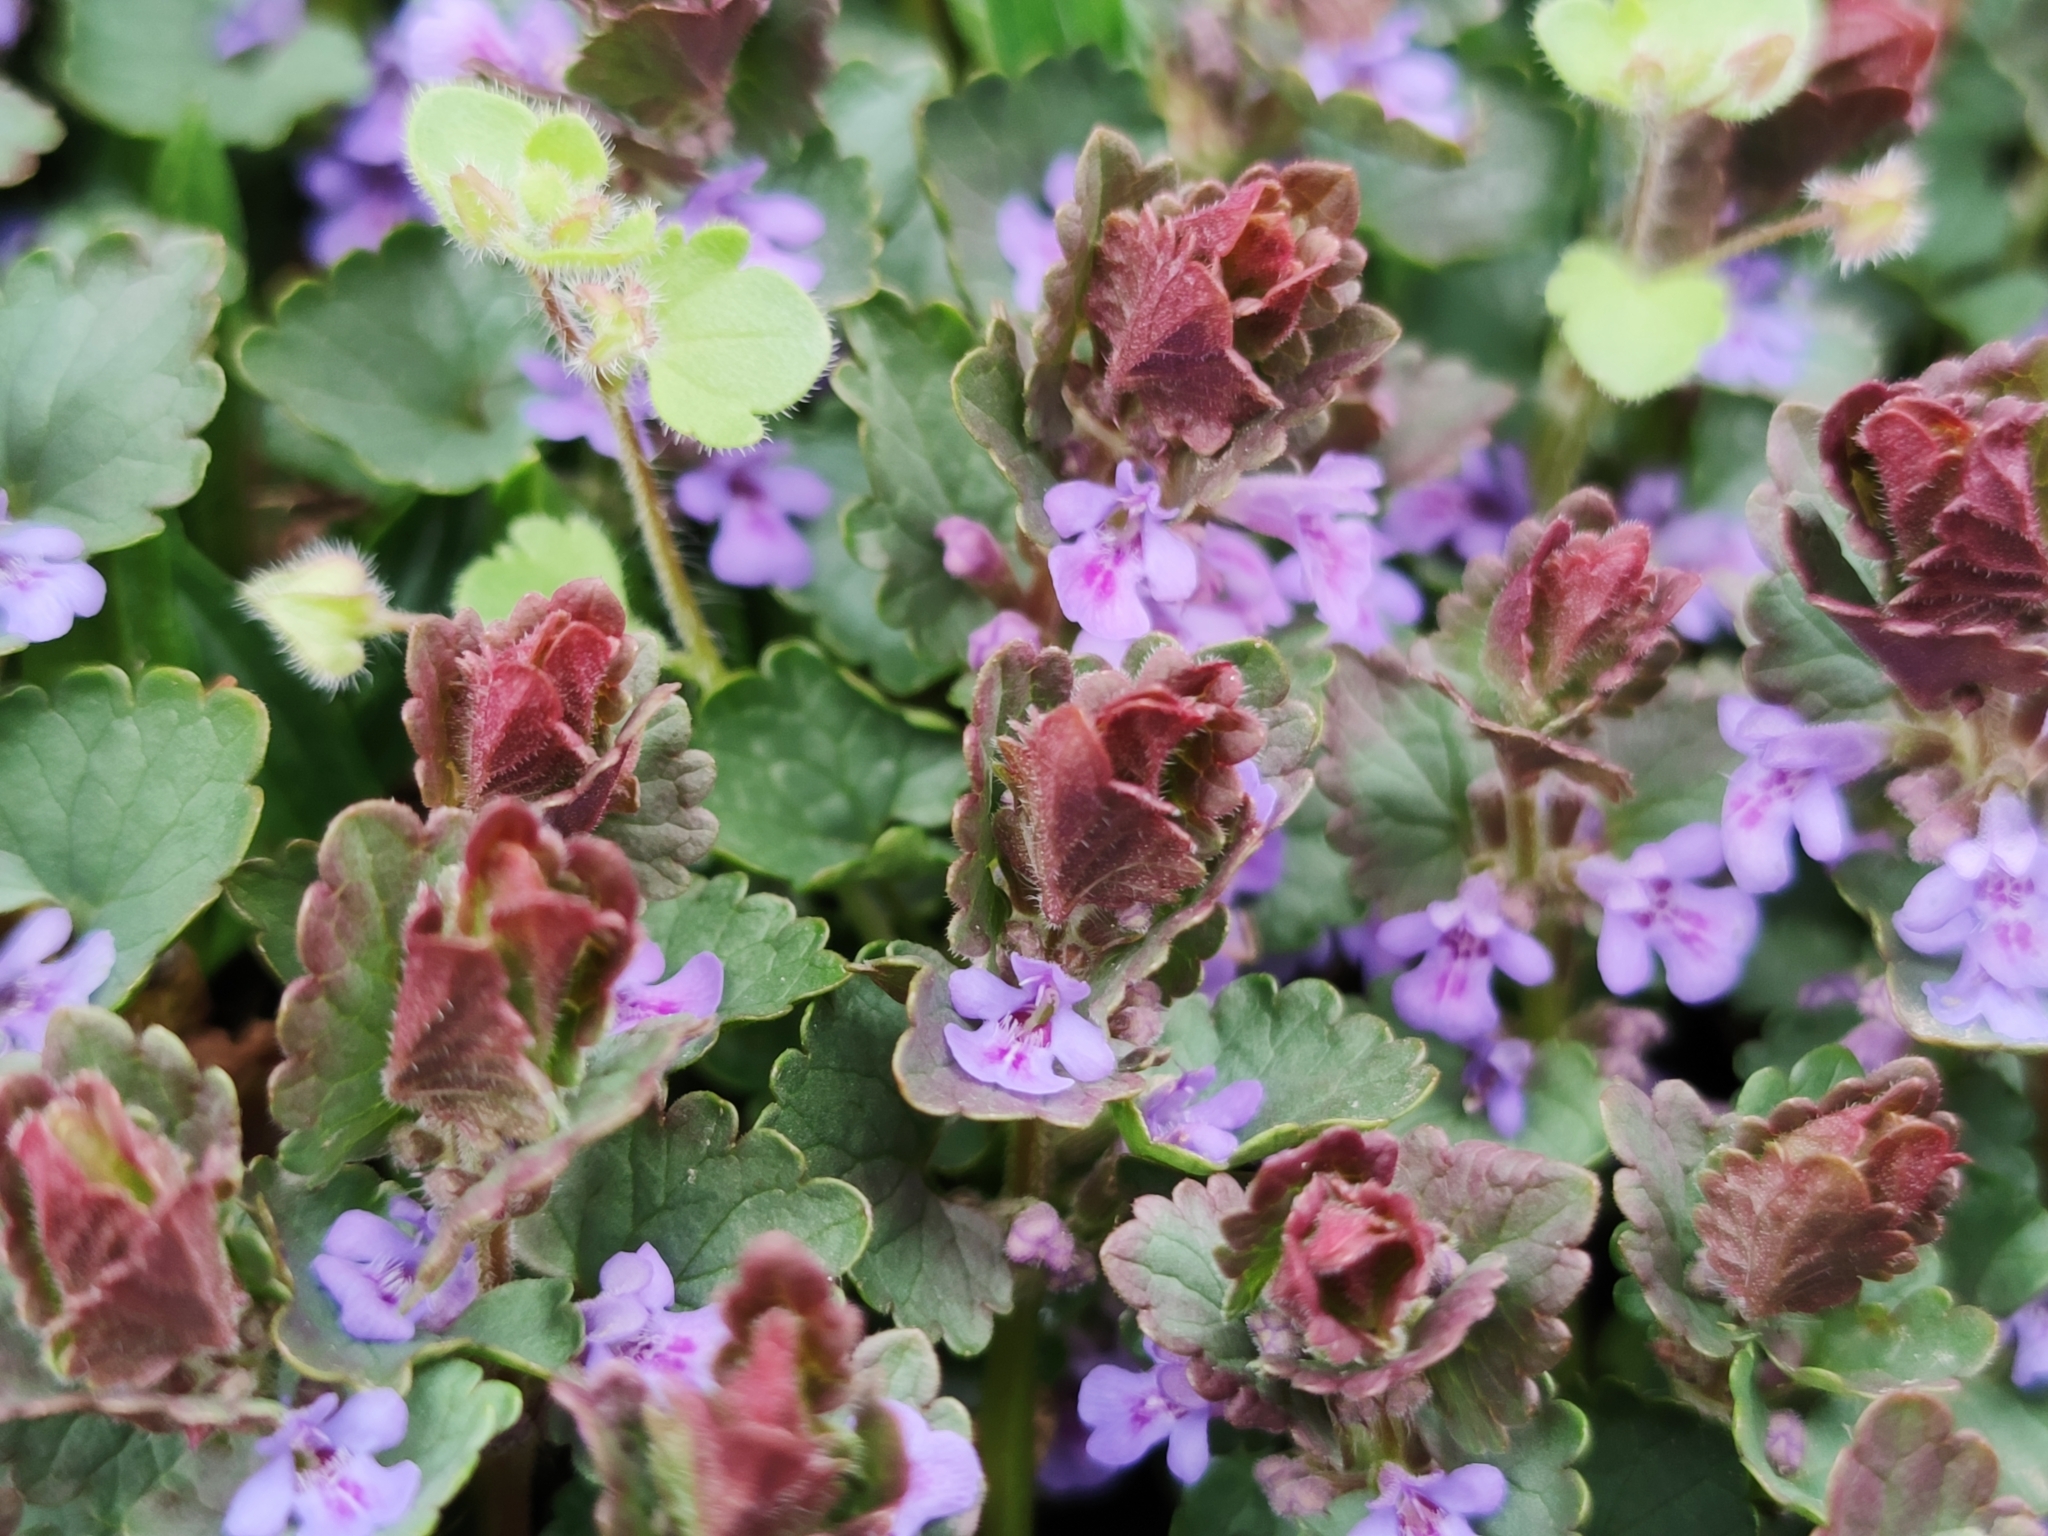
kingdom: Plantae
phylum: Tracheophyta
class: Magnoliopsida
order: Lamiales
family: Lamiaceae
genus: Glechoma
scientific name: Glechoma hederacea
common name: Ground ivy
